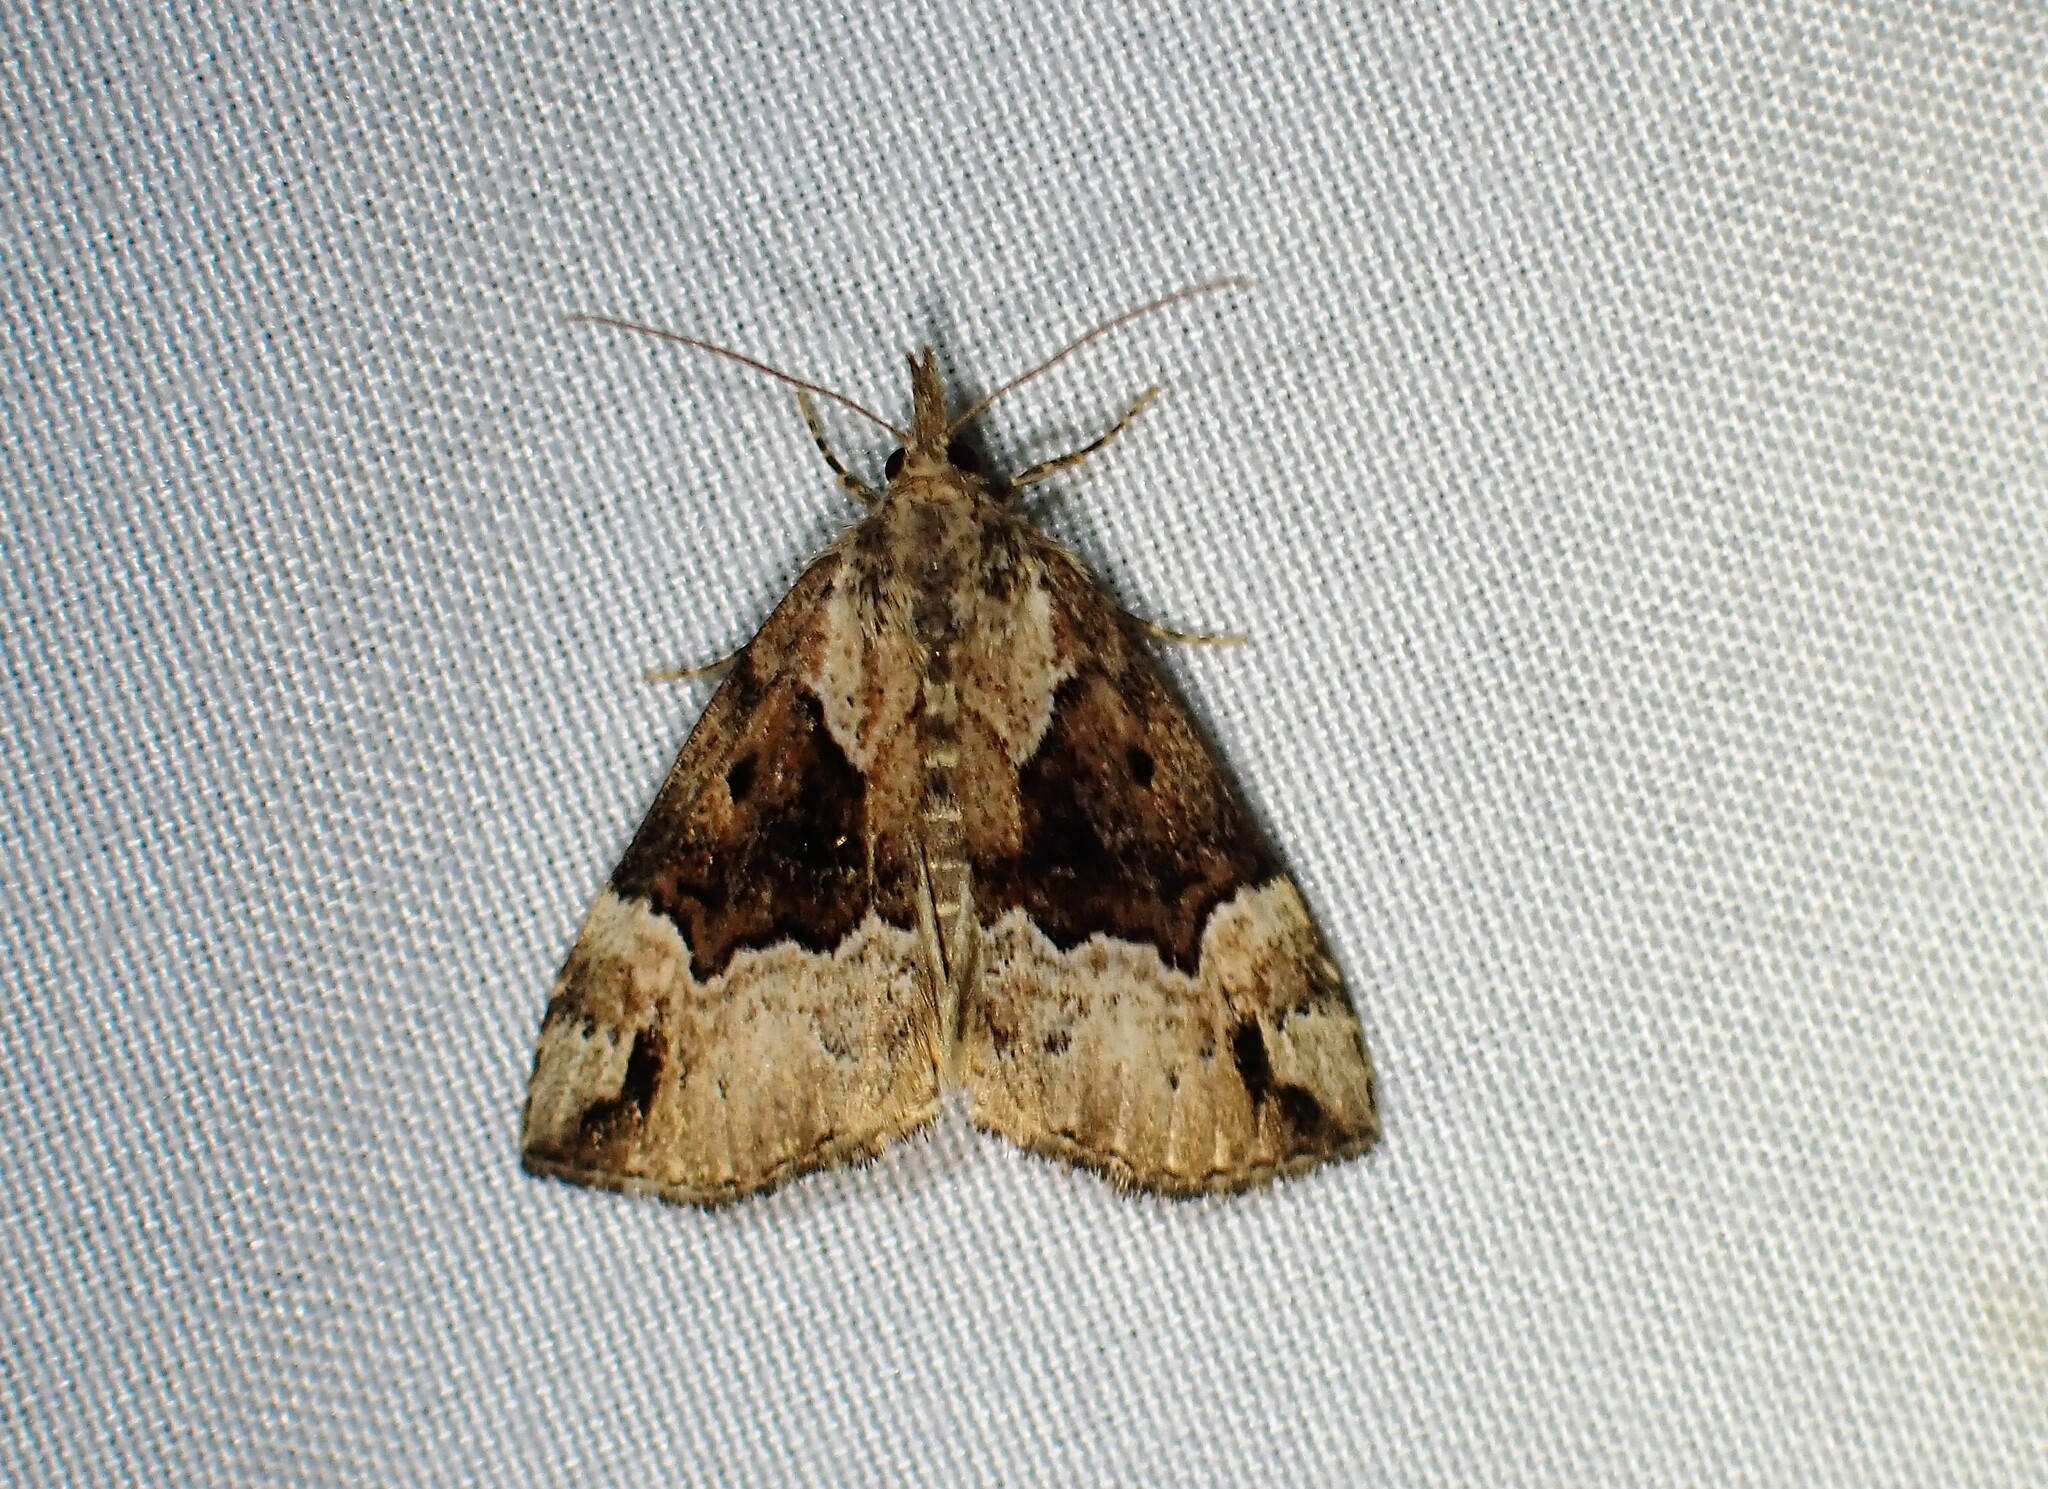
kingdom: Animalia
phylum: Arthropoda
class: Insecta
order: Lepidoptera
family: Erebidae
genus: Hypena
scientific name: Hypena palparia
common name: Mottled bomolocha moth
